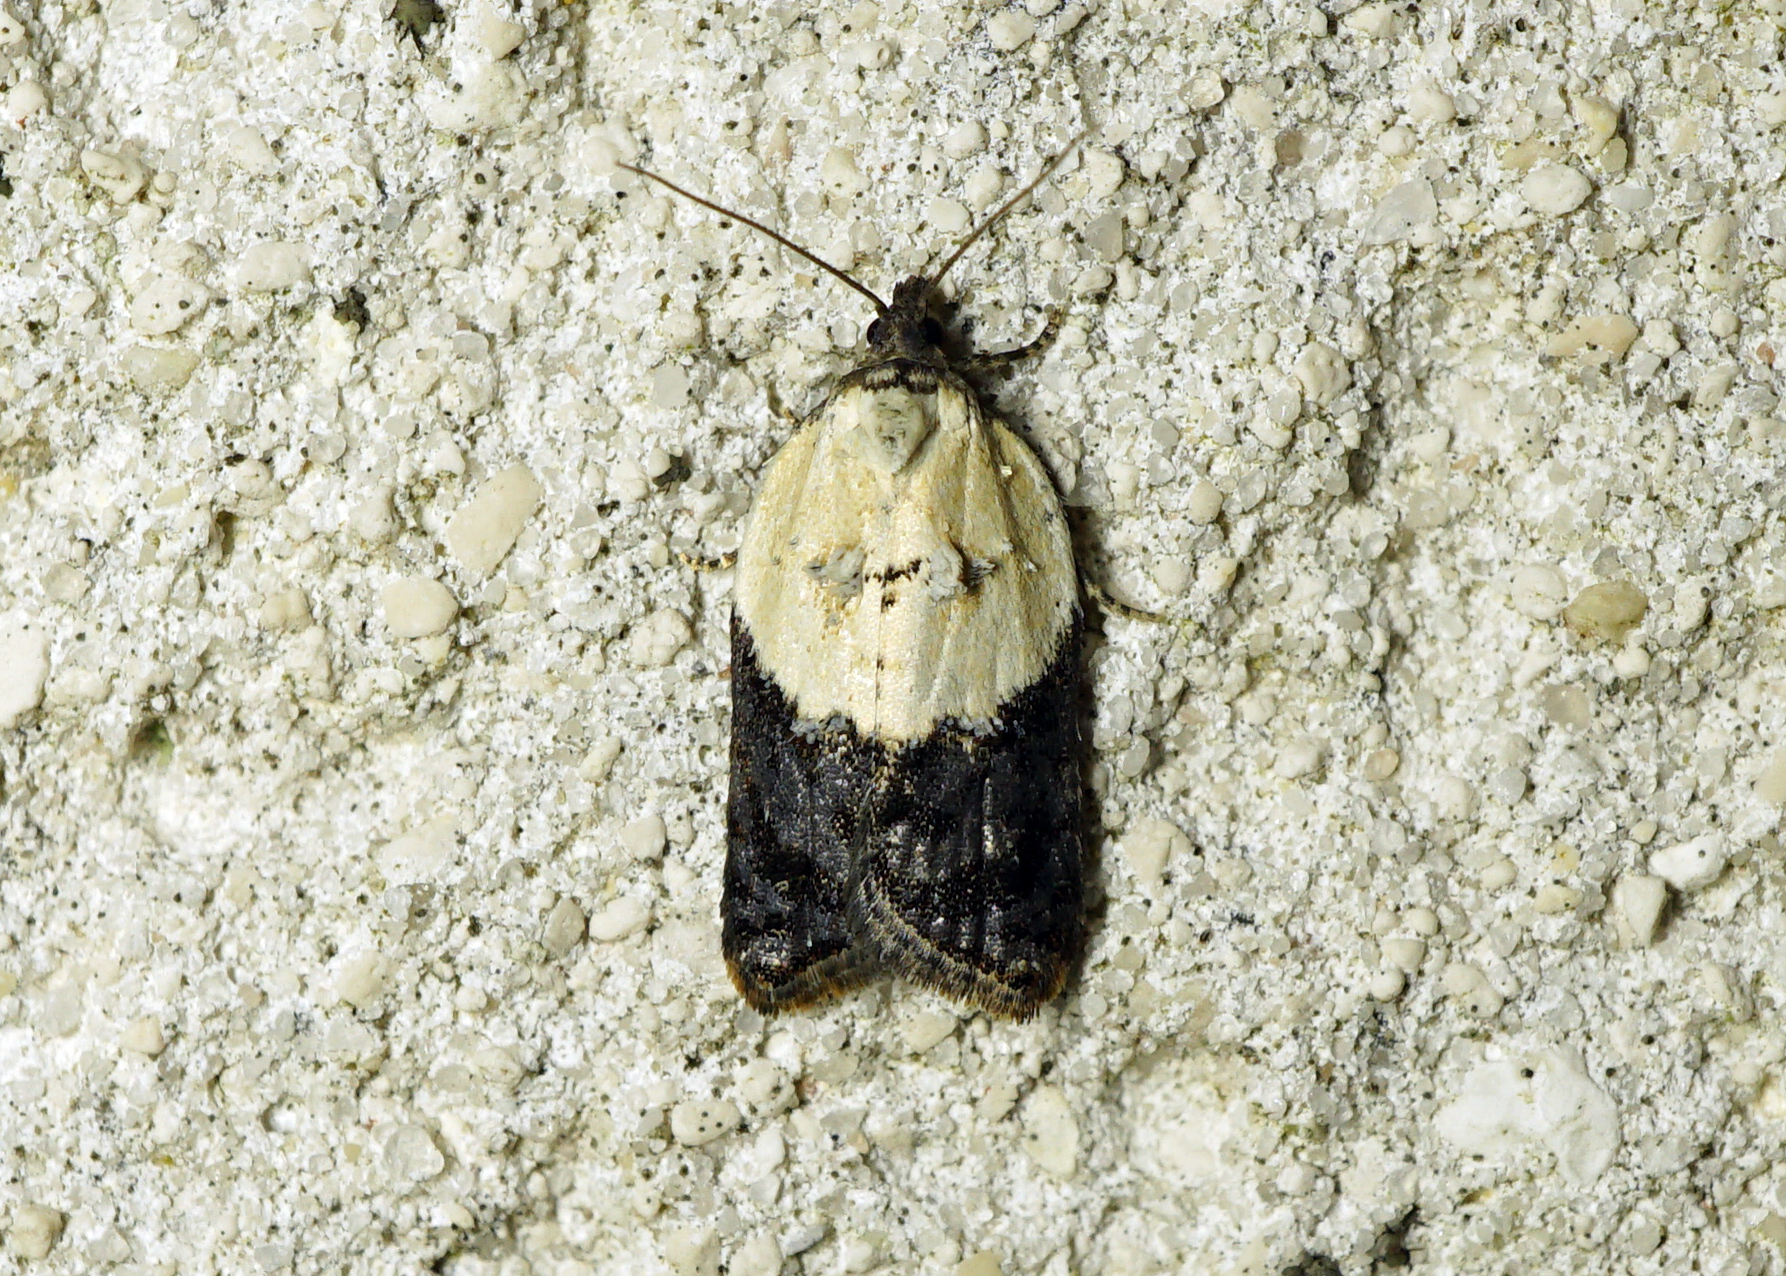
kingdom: Animalia
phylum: Arthropoda
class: Insecta
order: Lepidoptera
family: Tortricidae
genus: Acleris
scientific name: Acleris variegana
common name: Garden rose tortrix
